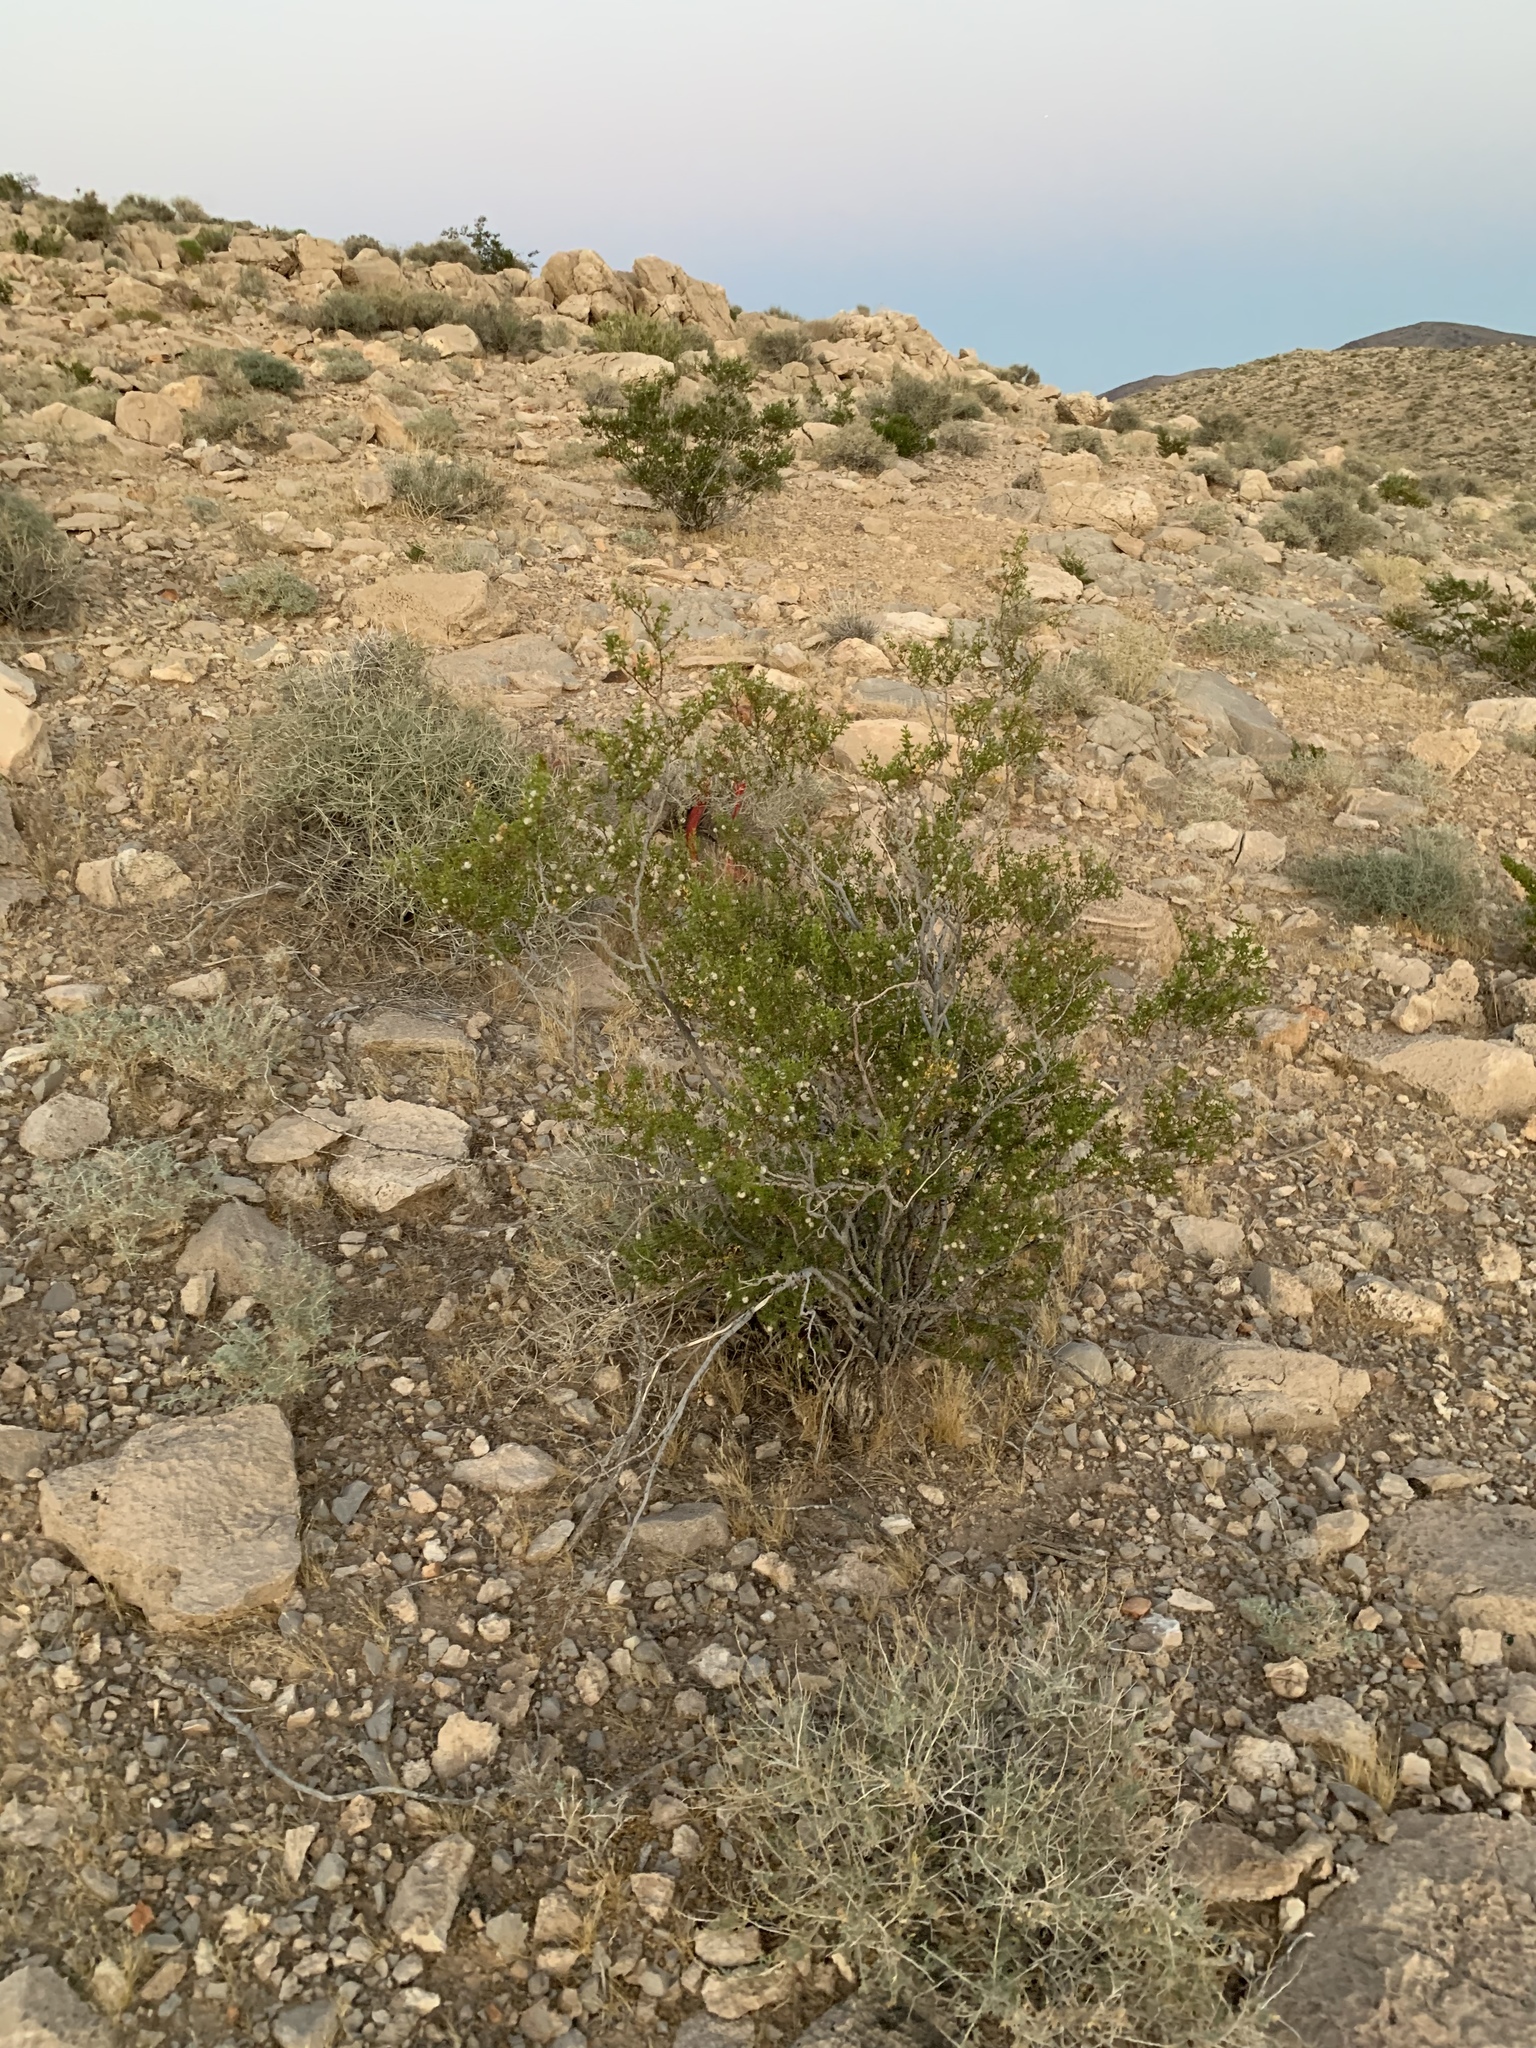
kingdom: Plantae
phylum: Tracheophyta
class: Magnoliopsida
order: Zygophyllales
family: Zygophyllaceae
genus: Larrea
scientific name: Larrea tridentata
